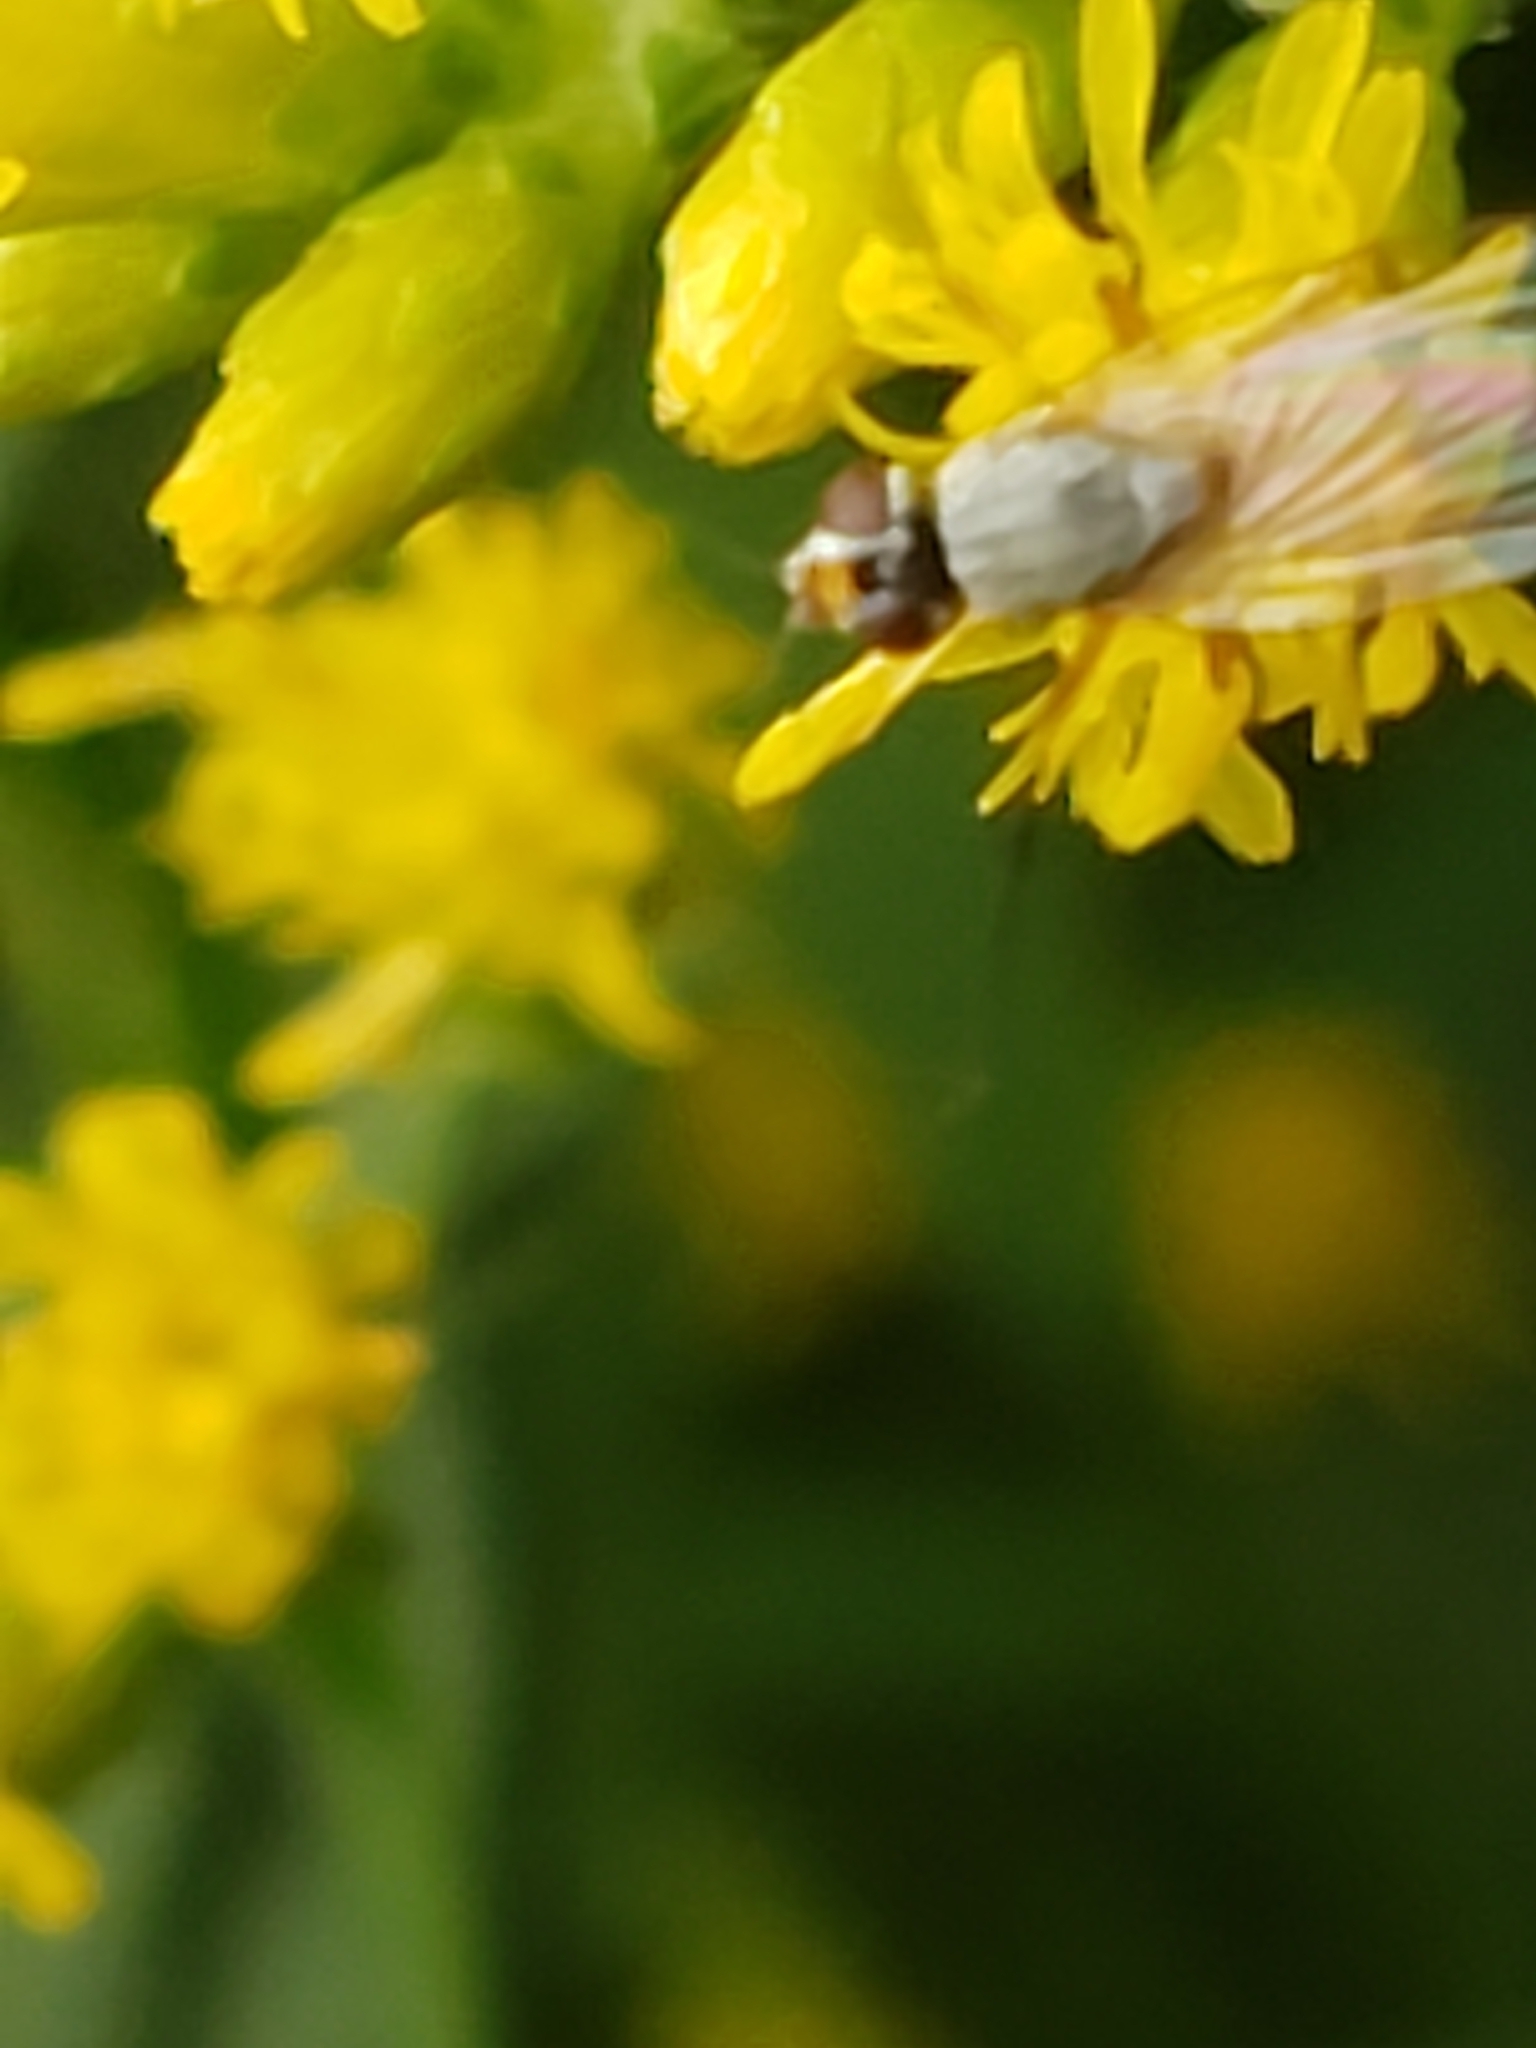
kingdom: Animalia
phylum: Arthropoda
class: Insecta
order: Diptera
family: Muscidae
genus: Atherigona
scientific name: Atherigona reversura
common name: Bermudagrass stem maggot
